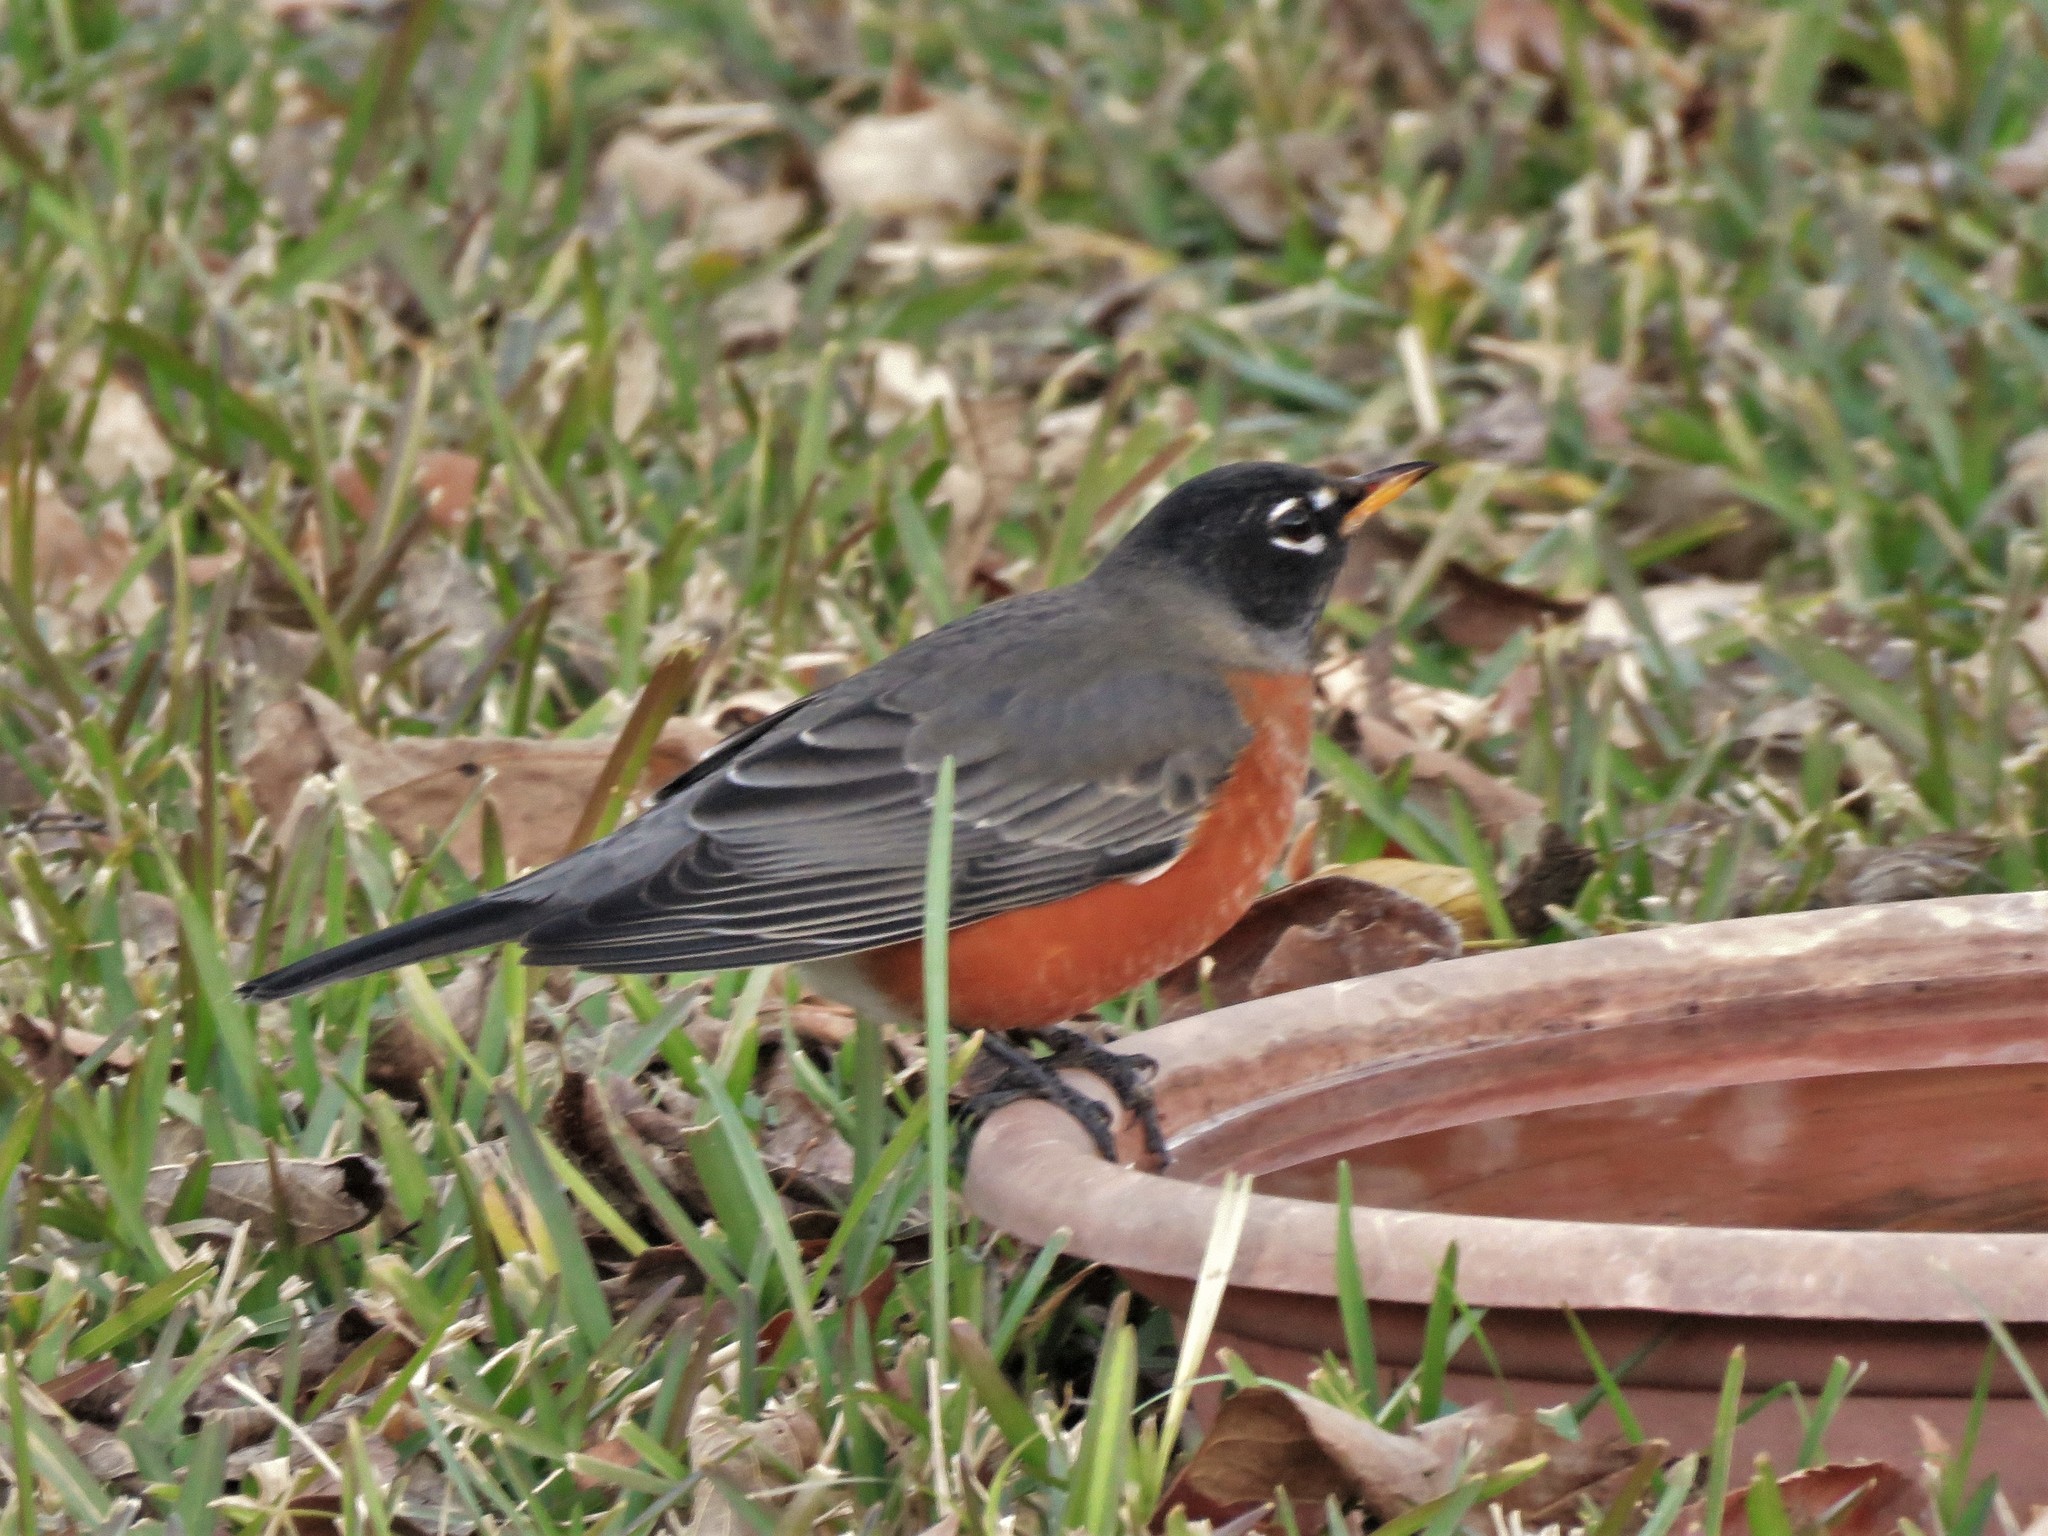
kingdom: Animalia
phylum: Chordata
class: Aves
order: Passeriformes
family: Turdidae
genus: Turdus
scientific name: Turdus migratorius
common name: American robin
